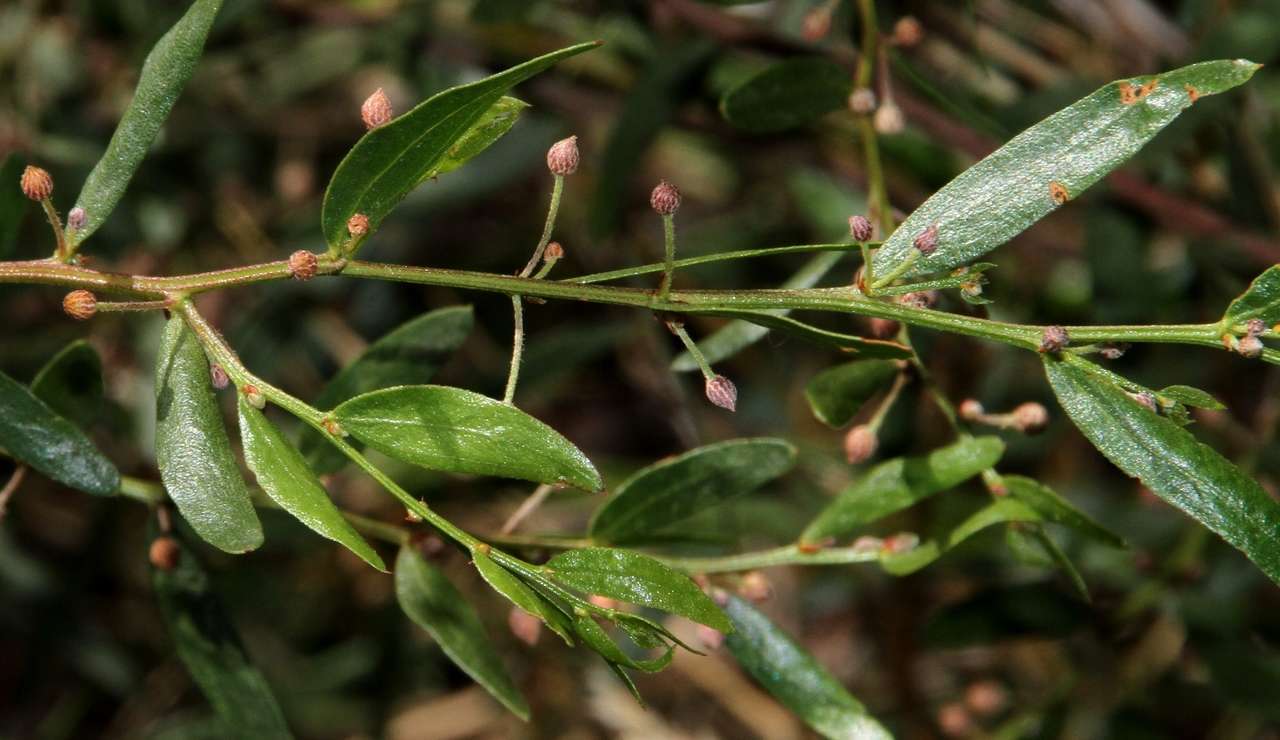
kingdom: Plantae
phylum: Tracheophyta
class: Magnoliopsida
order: Fabales
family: Fabaceae
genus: Acacia
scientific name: Acacia verniciflua
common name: Varnish wattle
